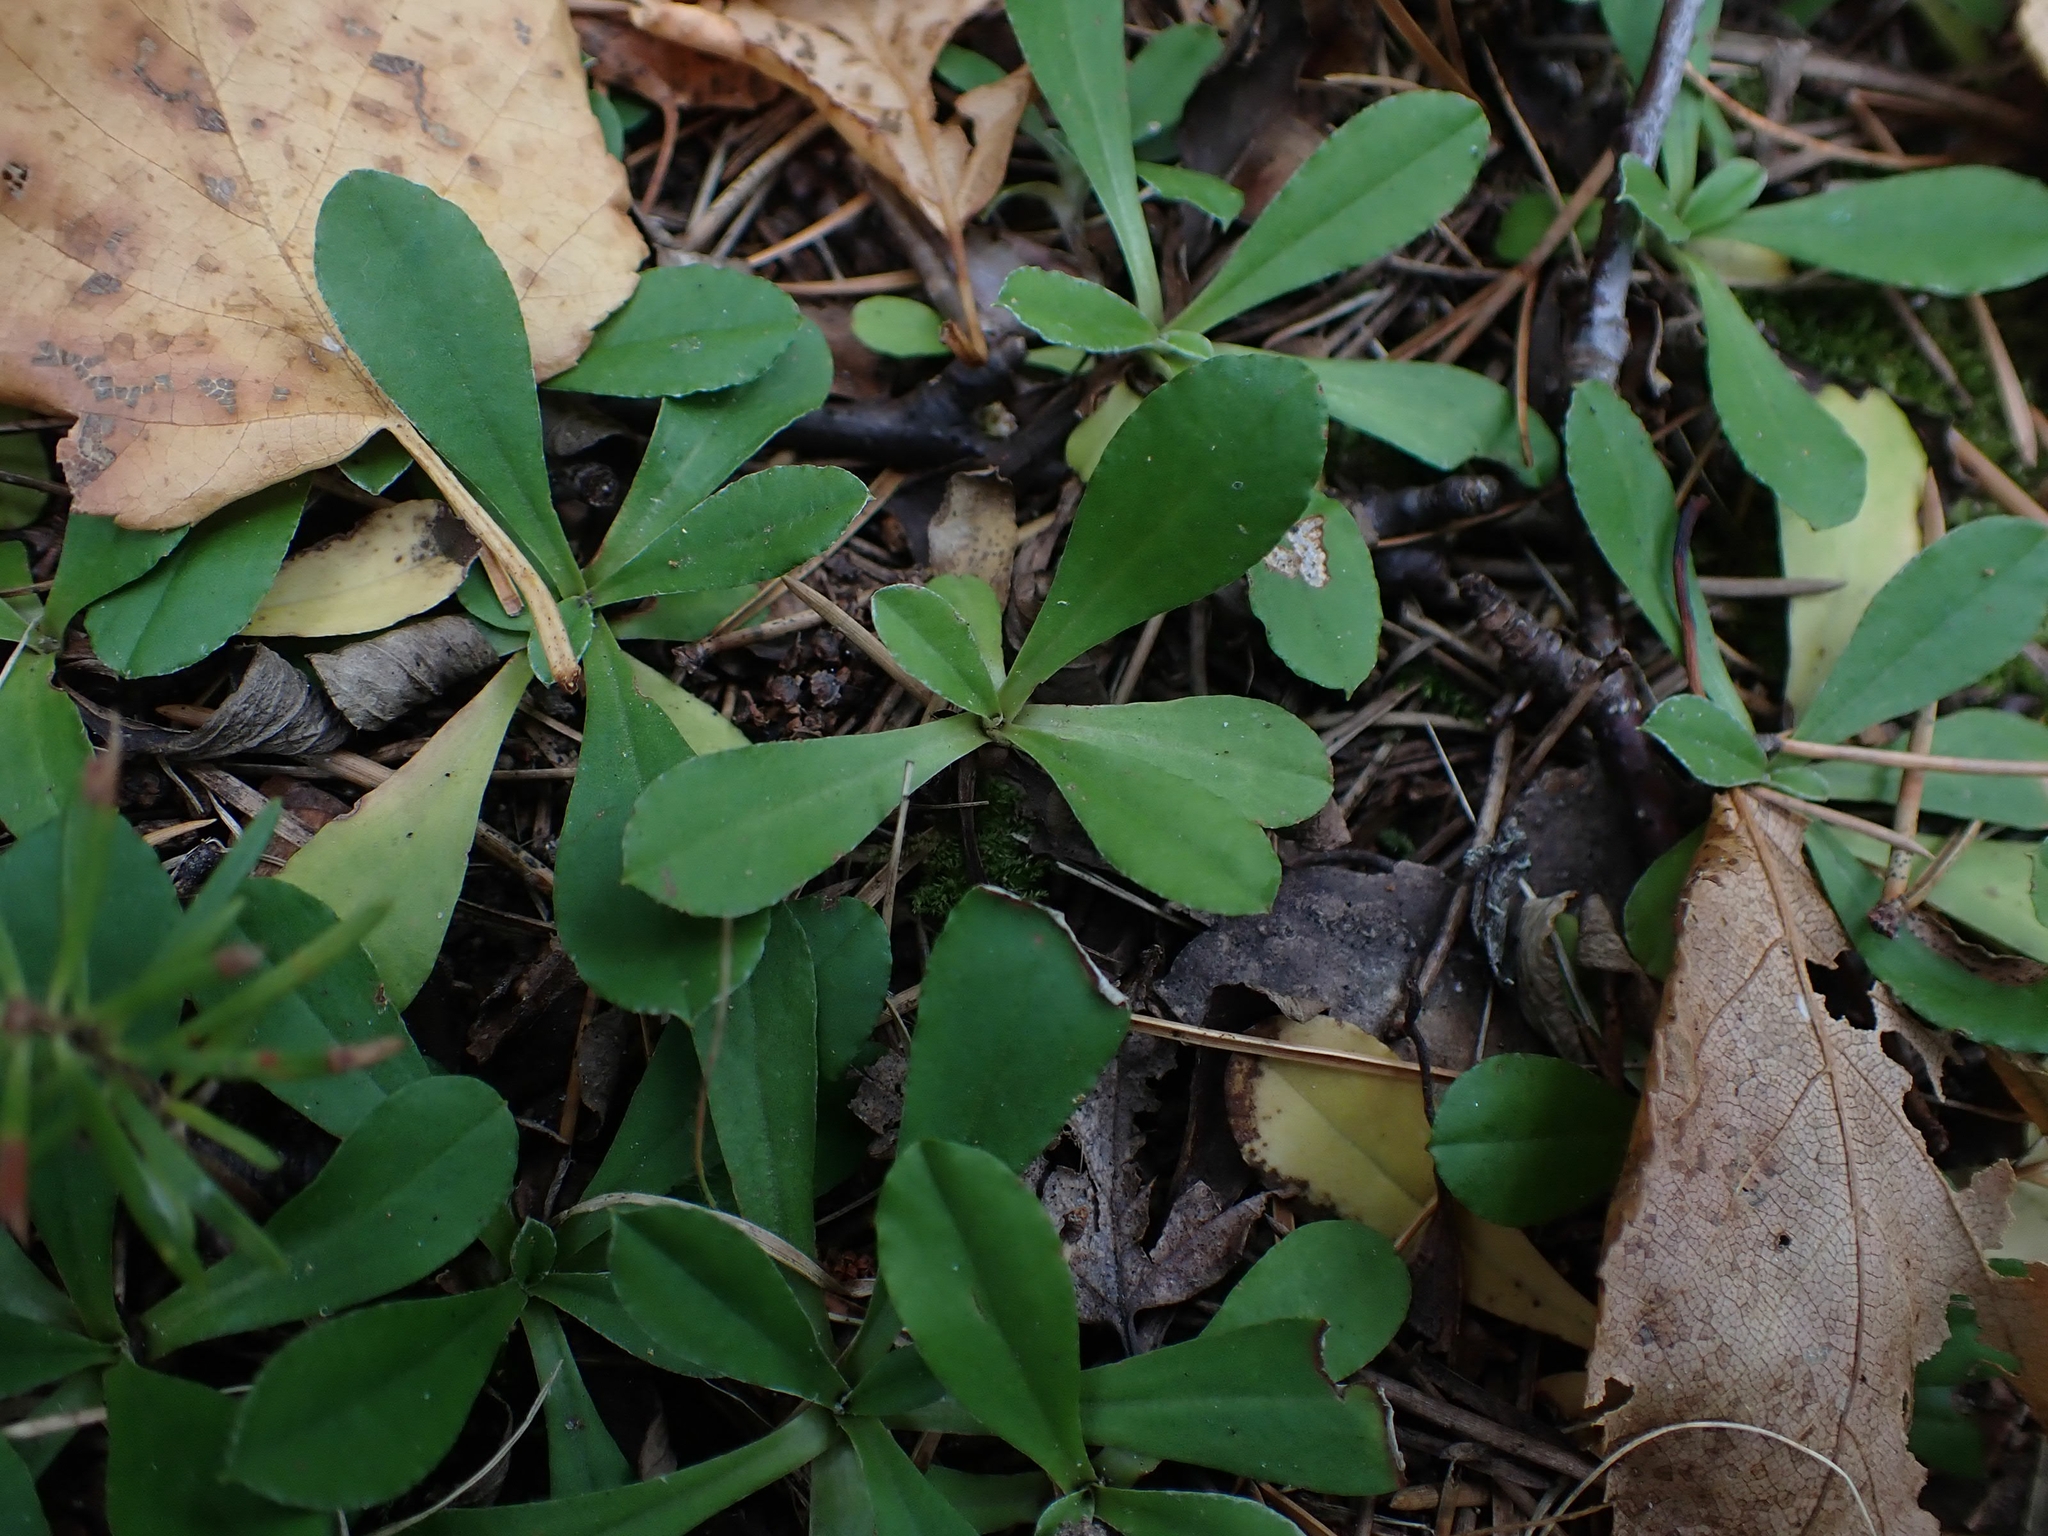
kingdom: Plantae
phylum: Tracheophyta
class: Magnoliopsida
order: Asterales
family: Asteraceae
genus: Antennaria
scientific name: Antennaria howellii
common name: Howell's pussytoes
